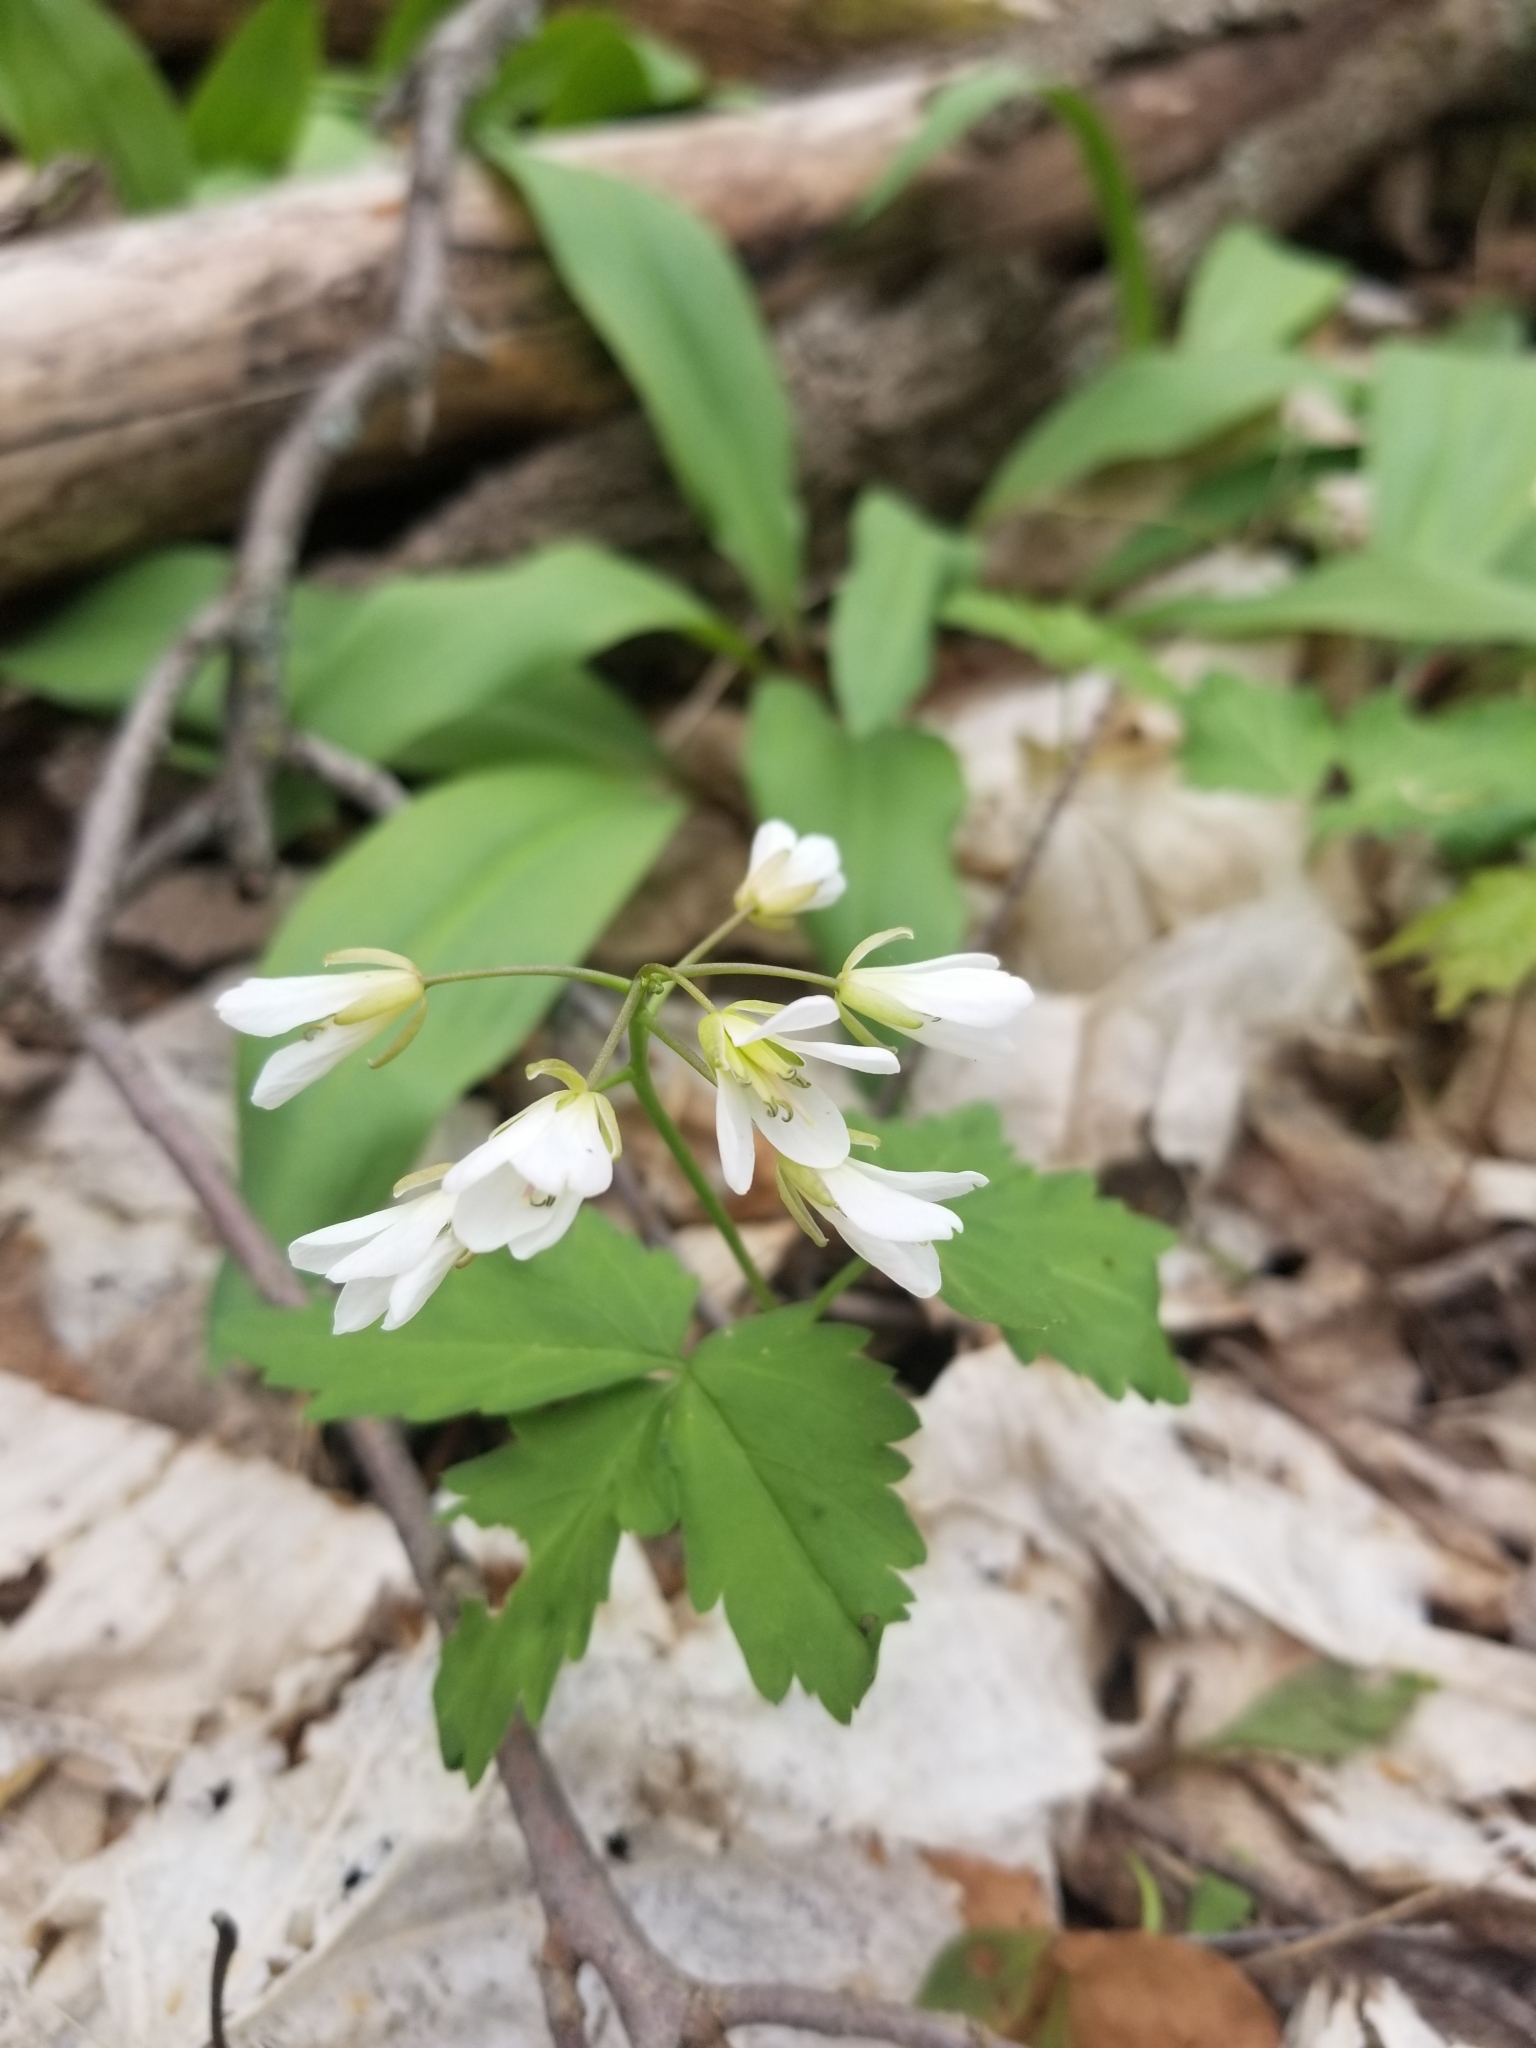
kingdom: Plantae
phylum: Tracheophyta
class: Magnoliopsida
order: Brassicales
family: Brassicaceae
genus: Cardamine
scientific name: Cardamine diphylla
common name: Broad-leaved toothwort
